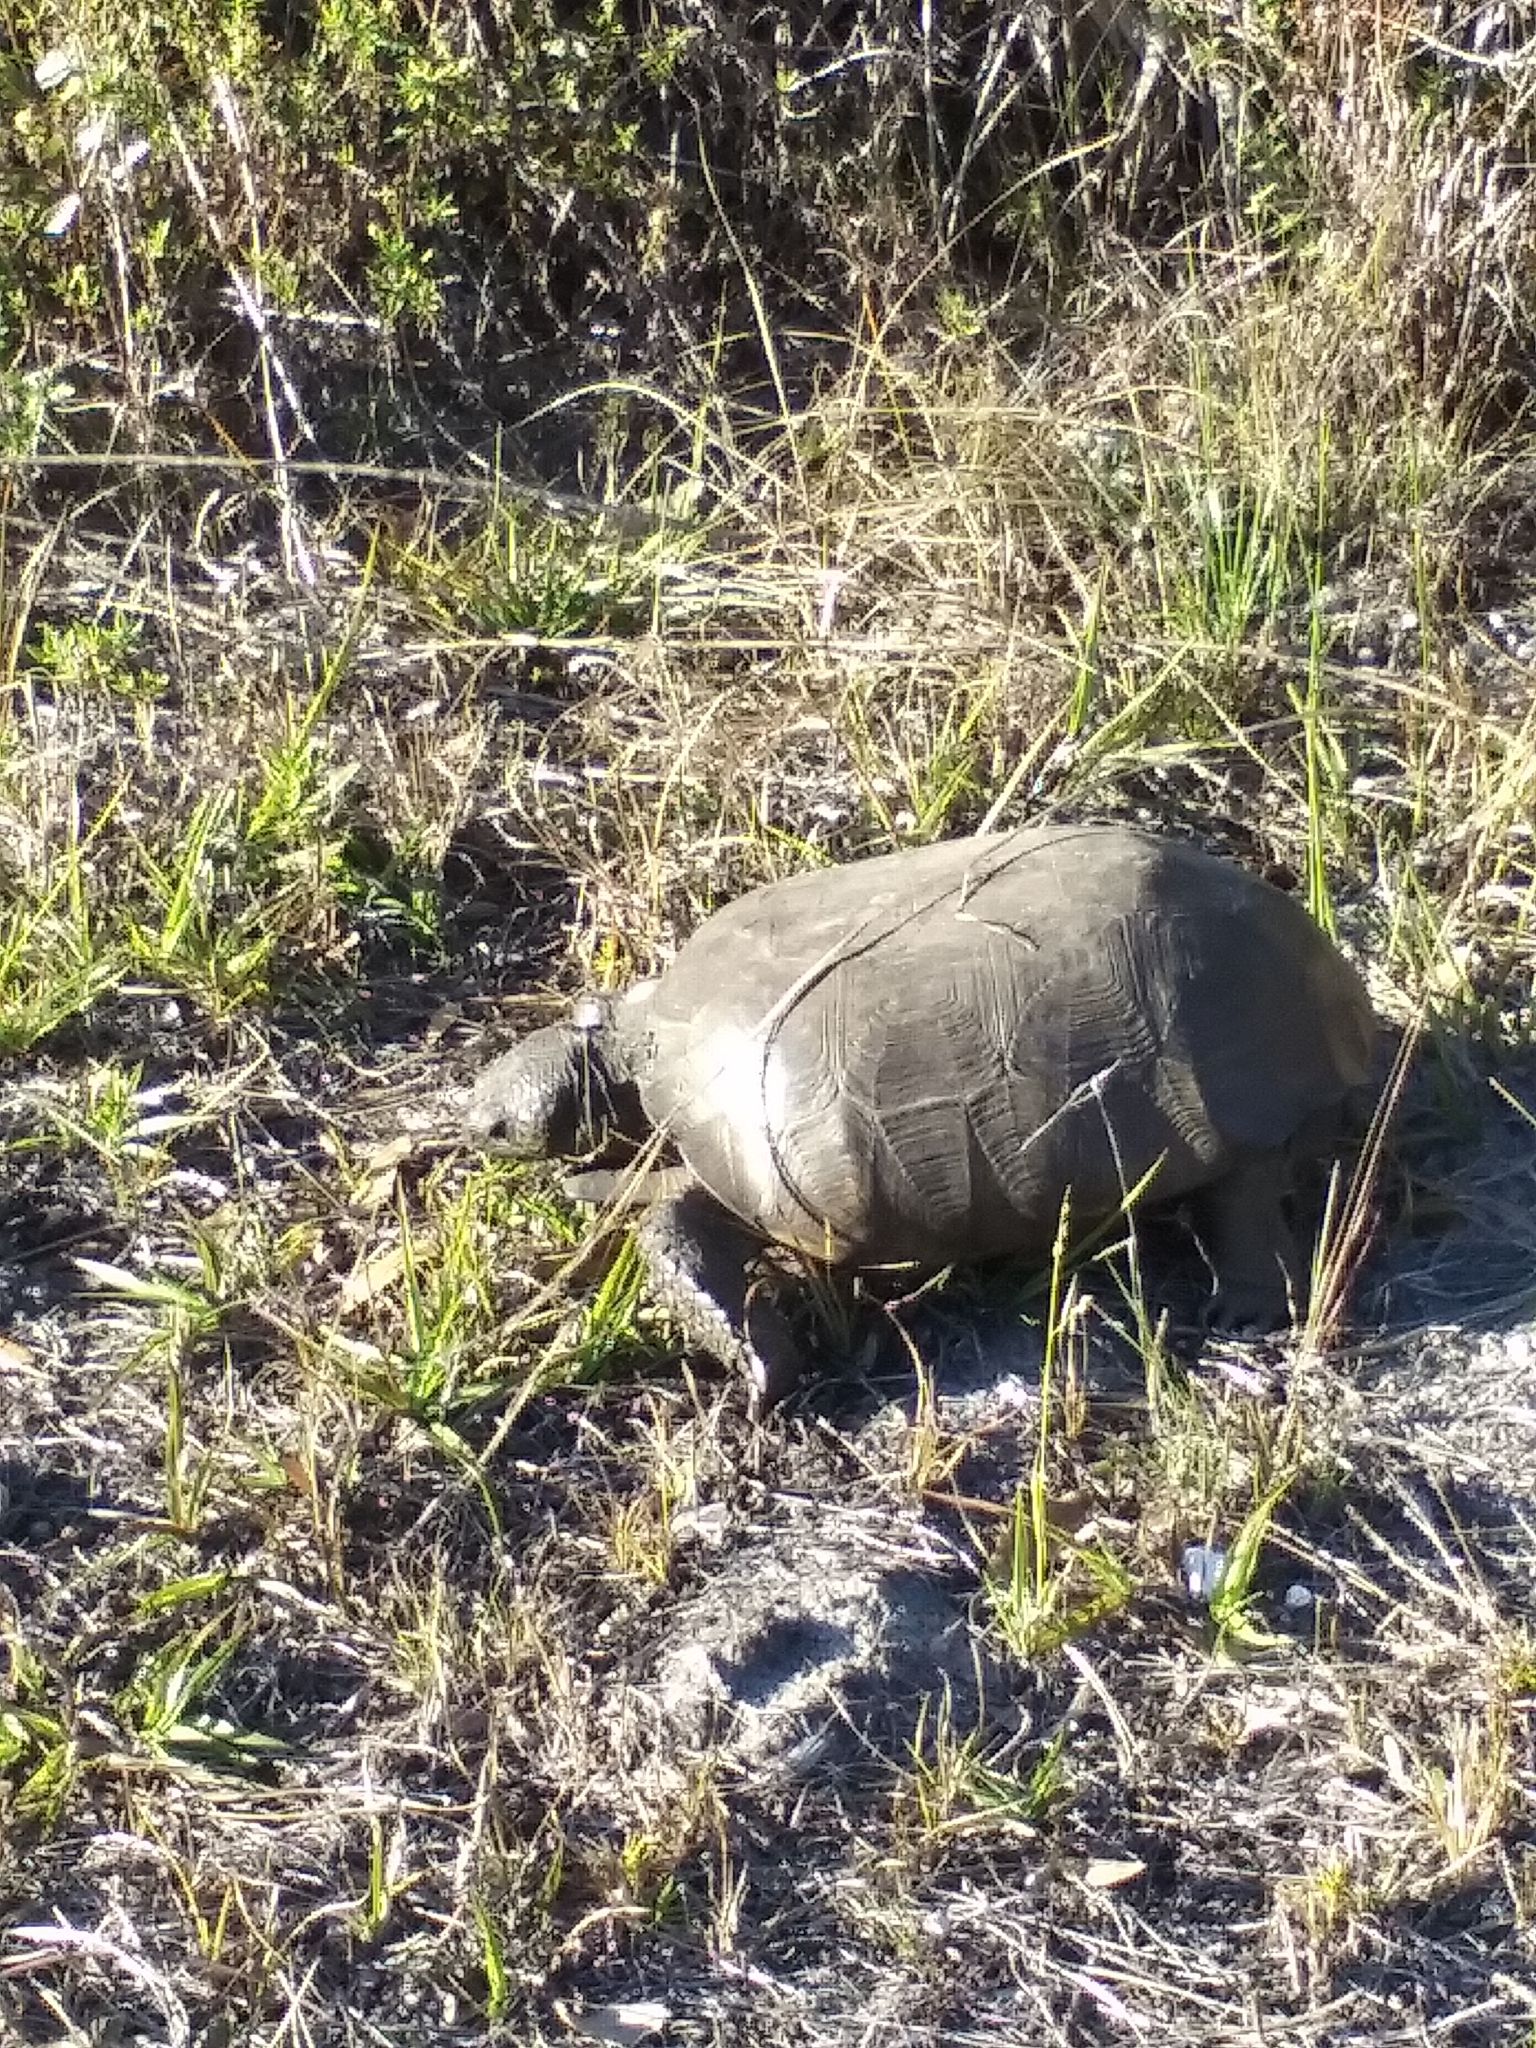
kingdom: Animalia
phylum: Chordata
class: Testudines
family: Testudinidae
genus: Gopherus
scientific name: Gopherus polyphemus
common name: Florida gopher tortoise
